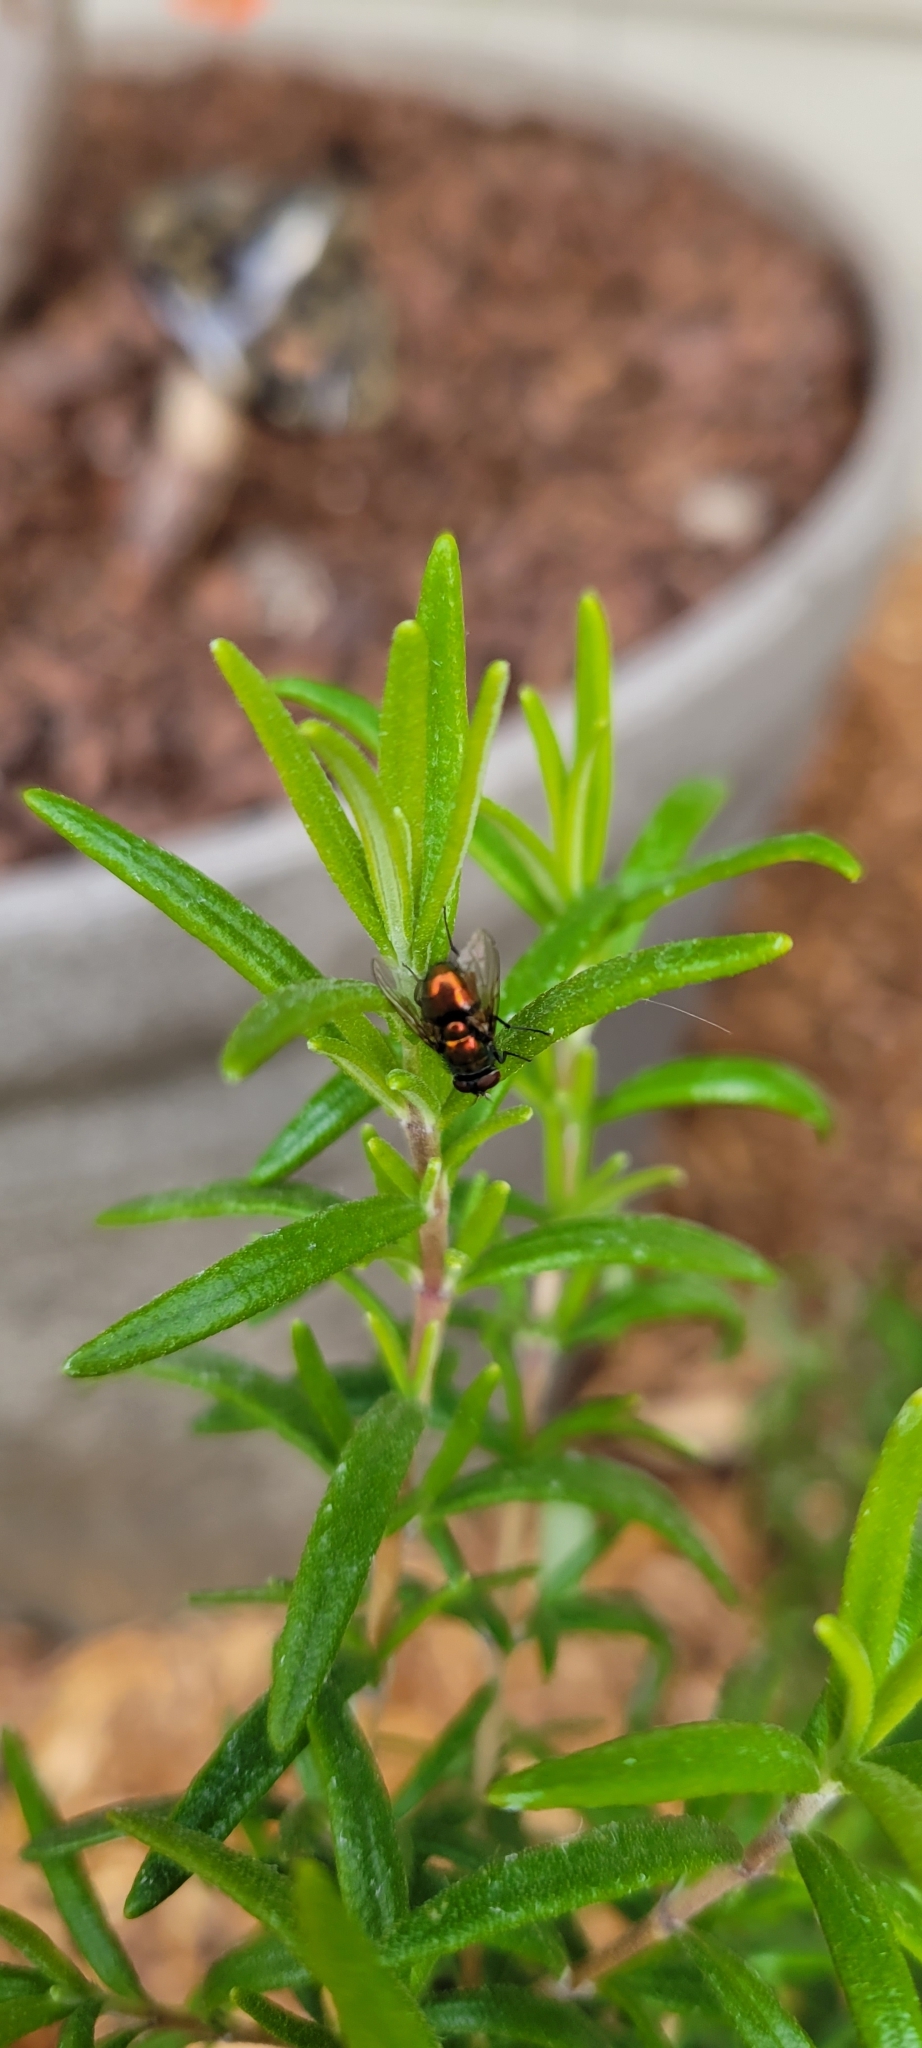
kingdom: Animalia
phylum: Arthropoda
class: Insecta
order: Diptera
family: Calliphoridae
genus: Lucilia
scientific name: Lucilia
